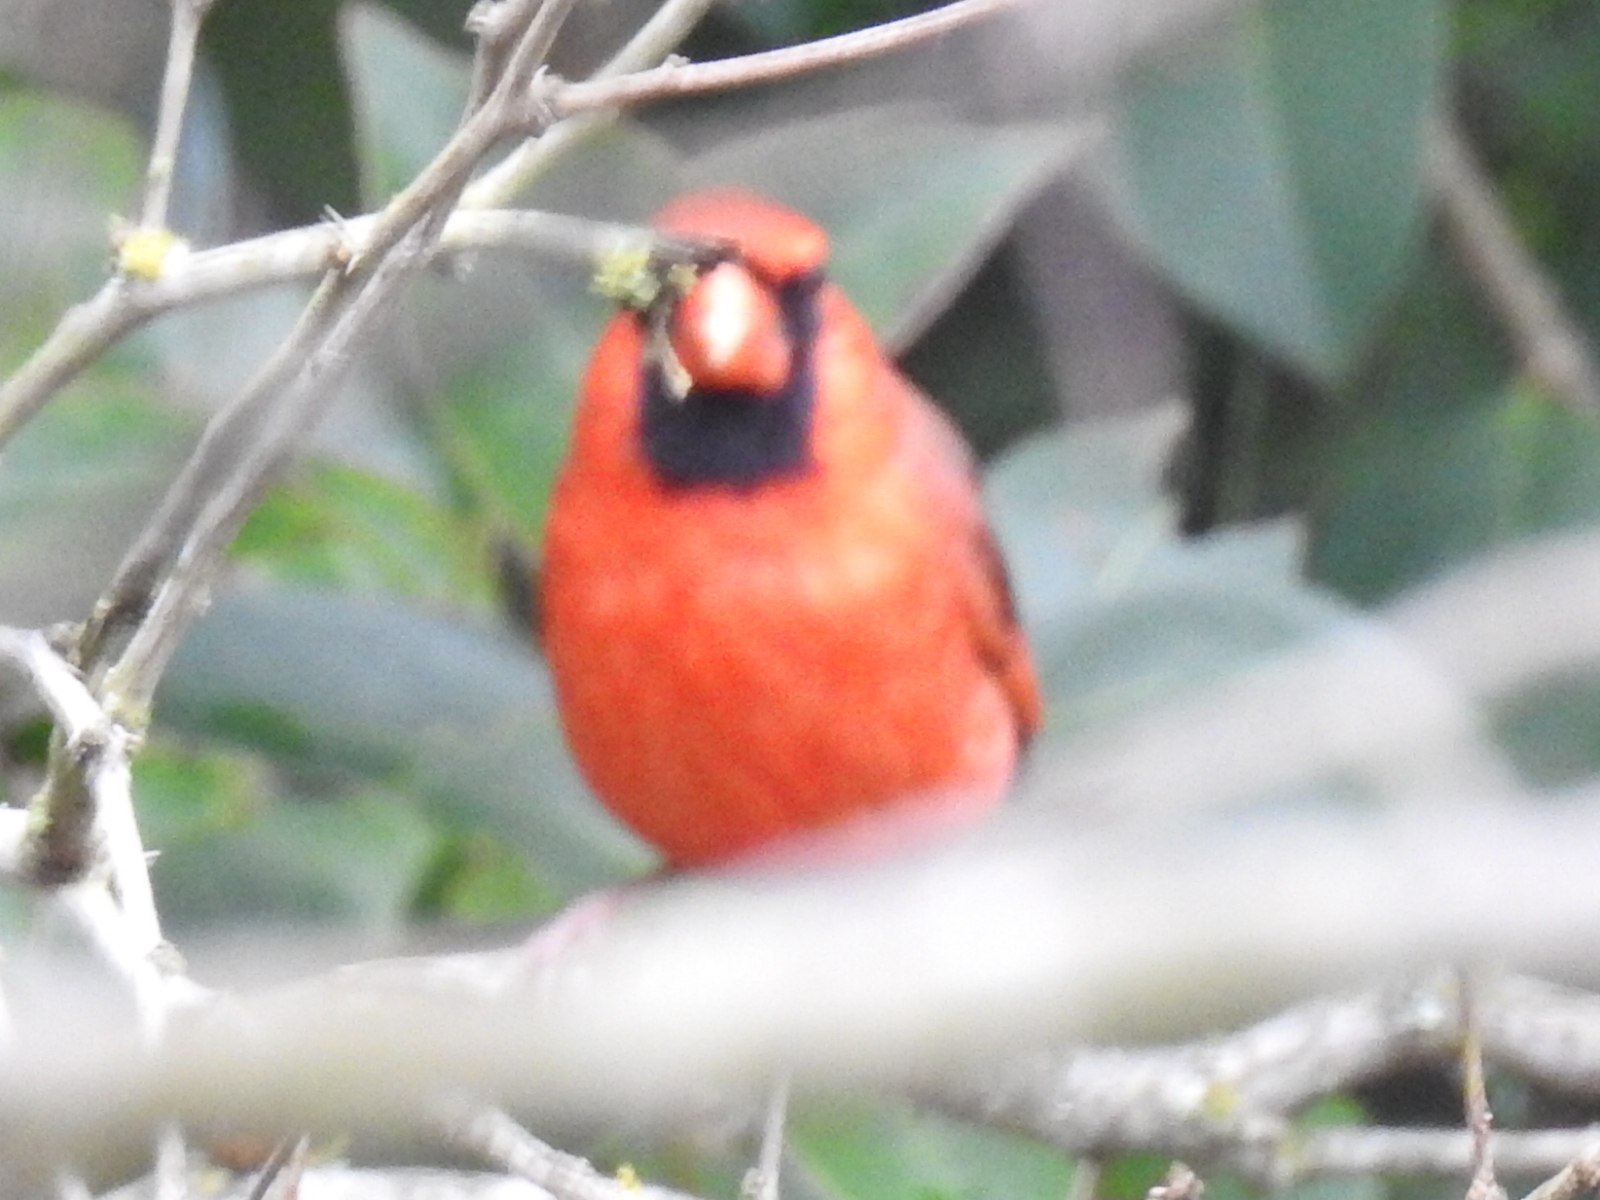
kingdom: Animalia
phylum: Chordata
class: Aves
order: Passeriformes
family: Cardinalidae
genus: Cardinalis
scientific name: Cardinalis cardinalis
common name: Northern cardinal
